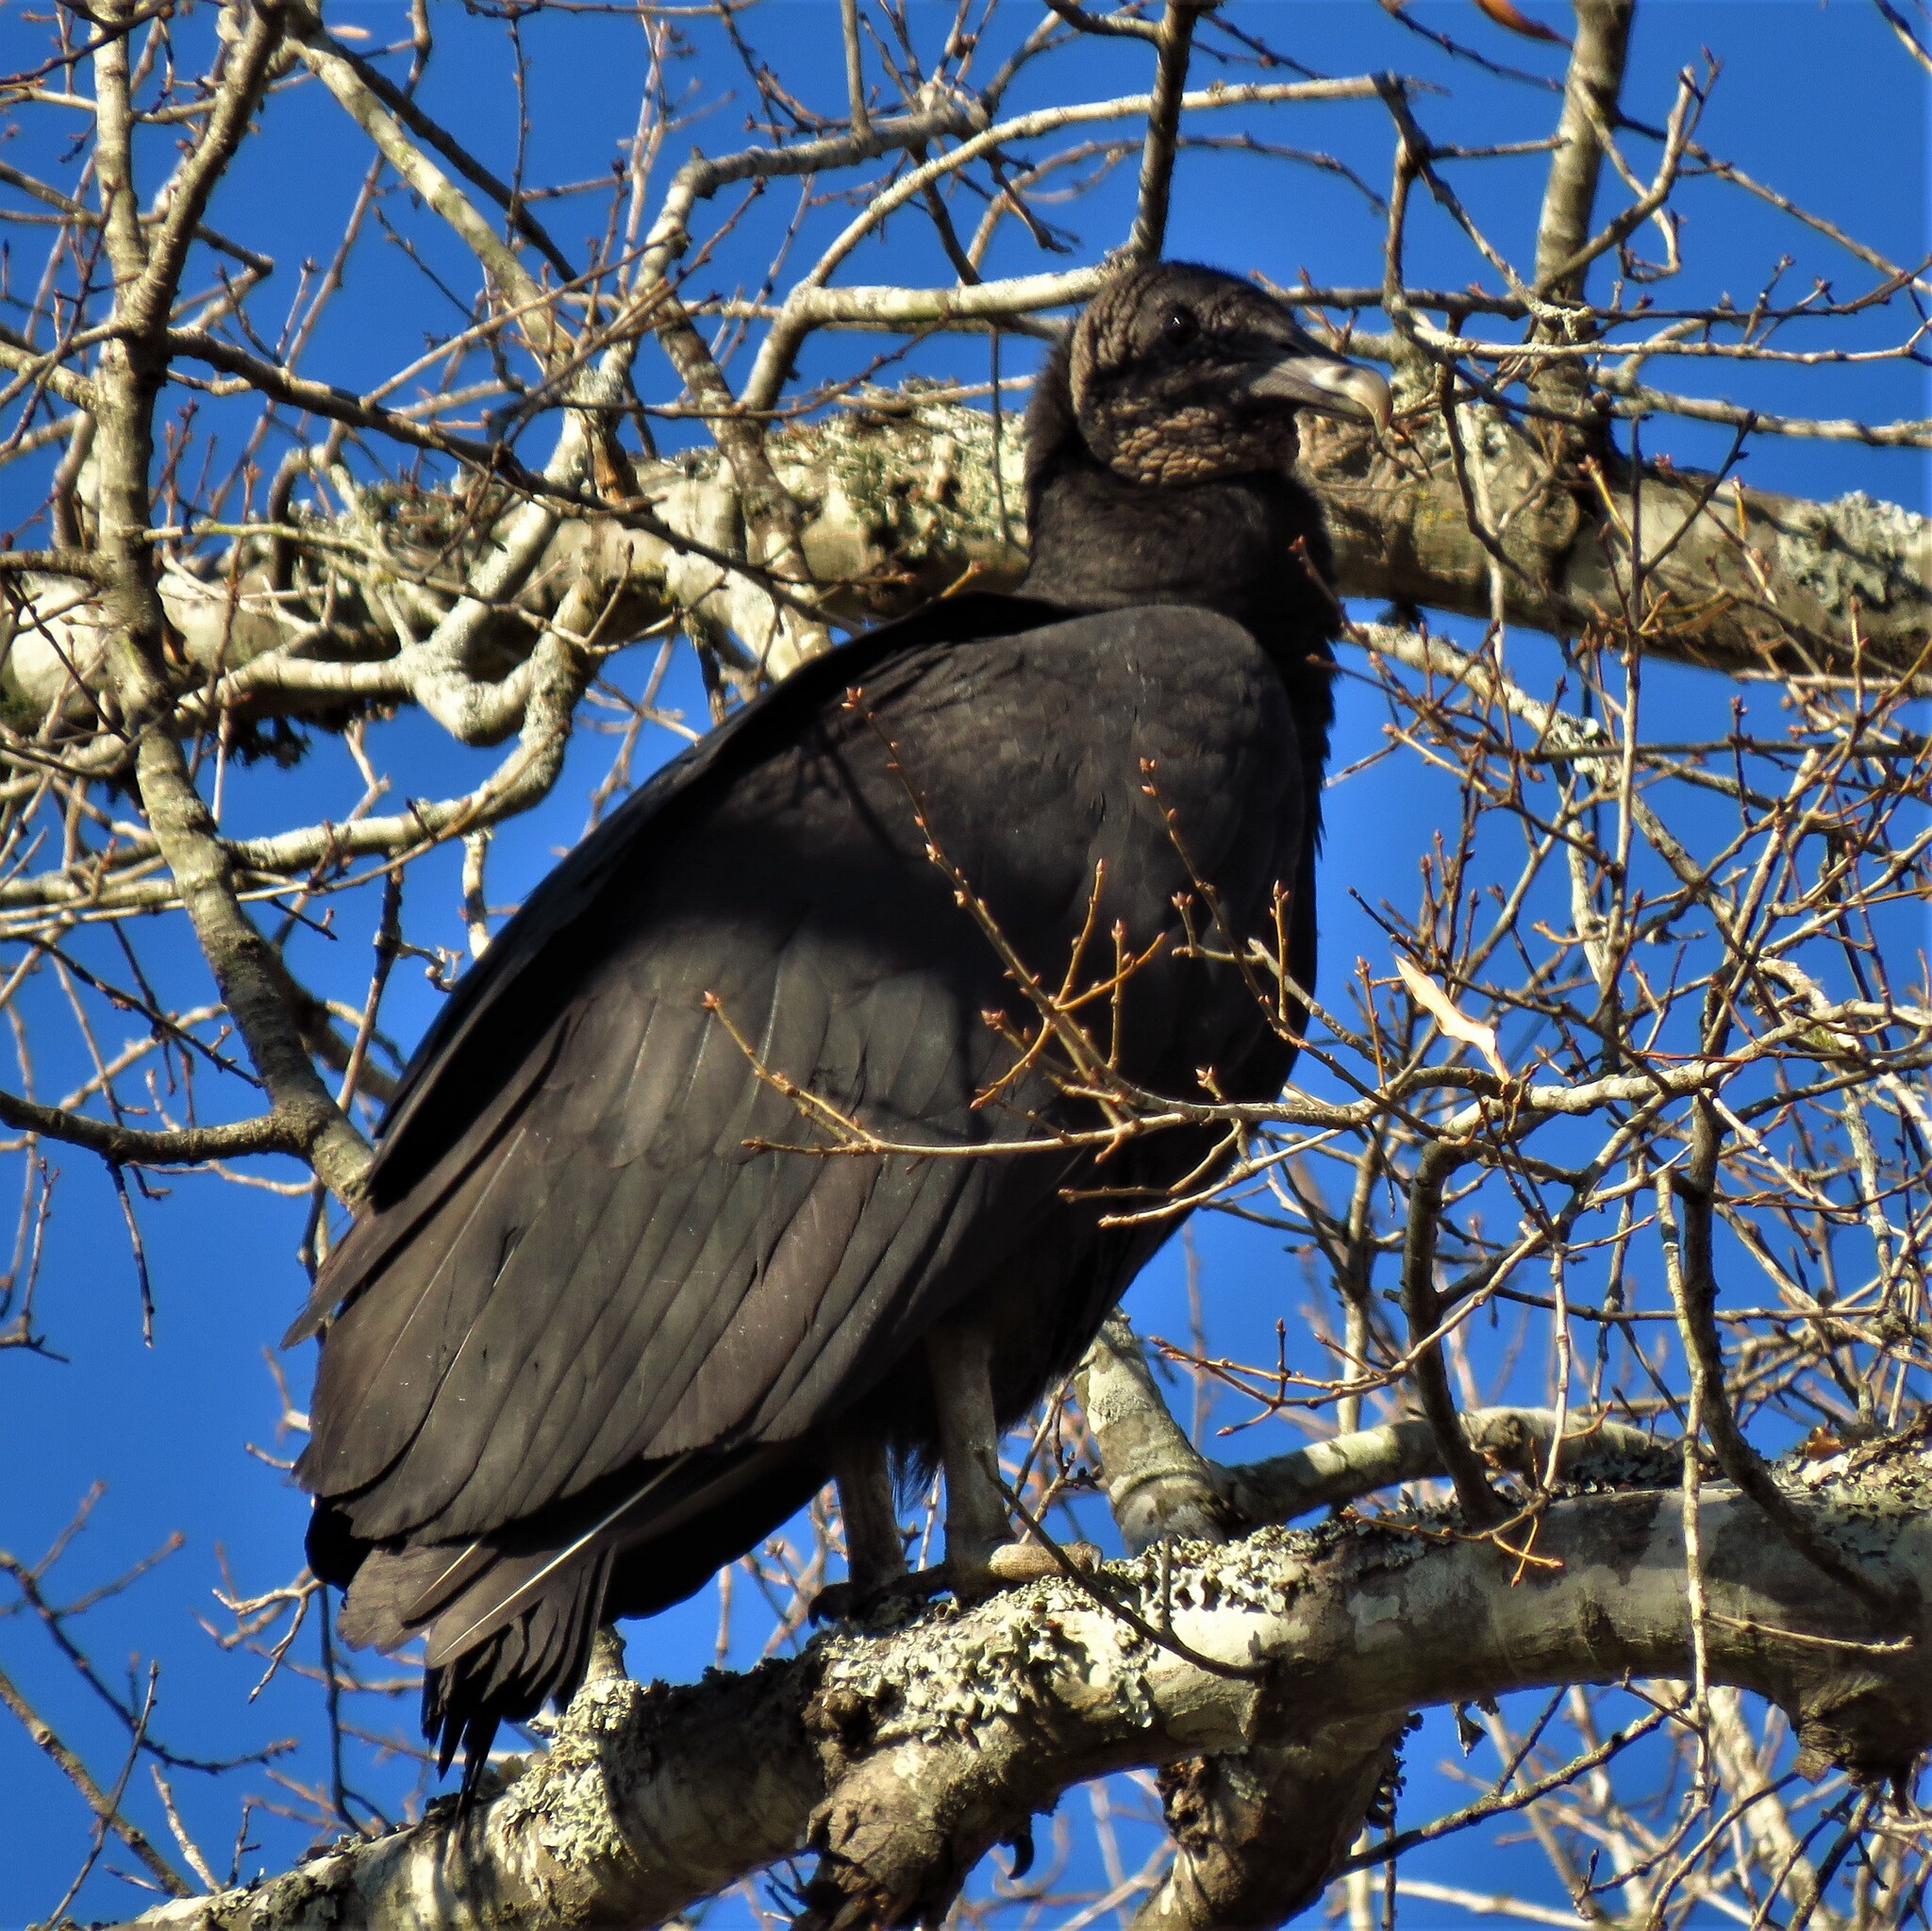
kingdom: Animalia
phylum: Chordata
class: Aves
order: Accipitriformes
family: Cathartidae
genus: Coragyps
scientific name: Coragyps atratus
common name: Black vulture
